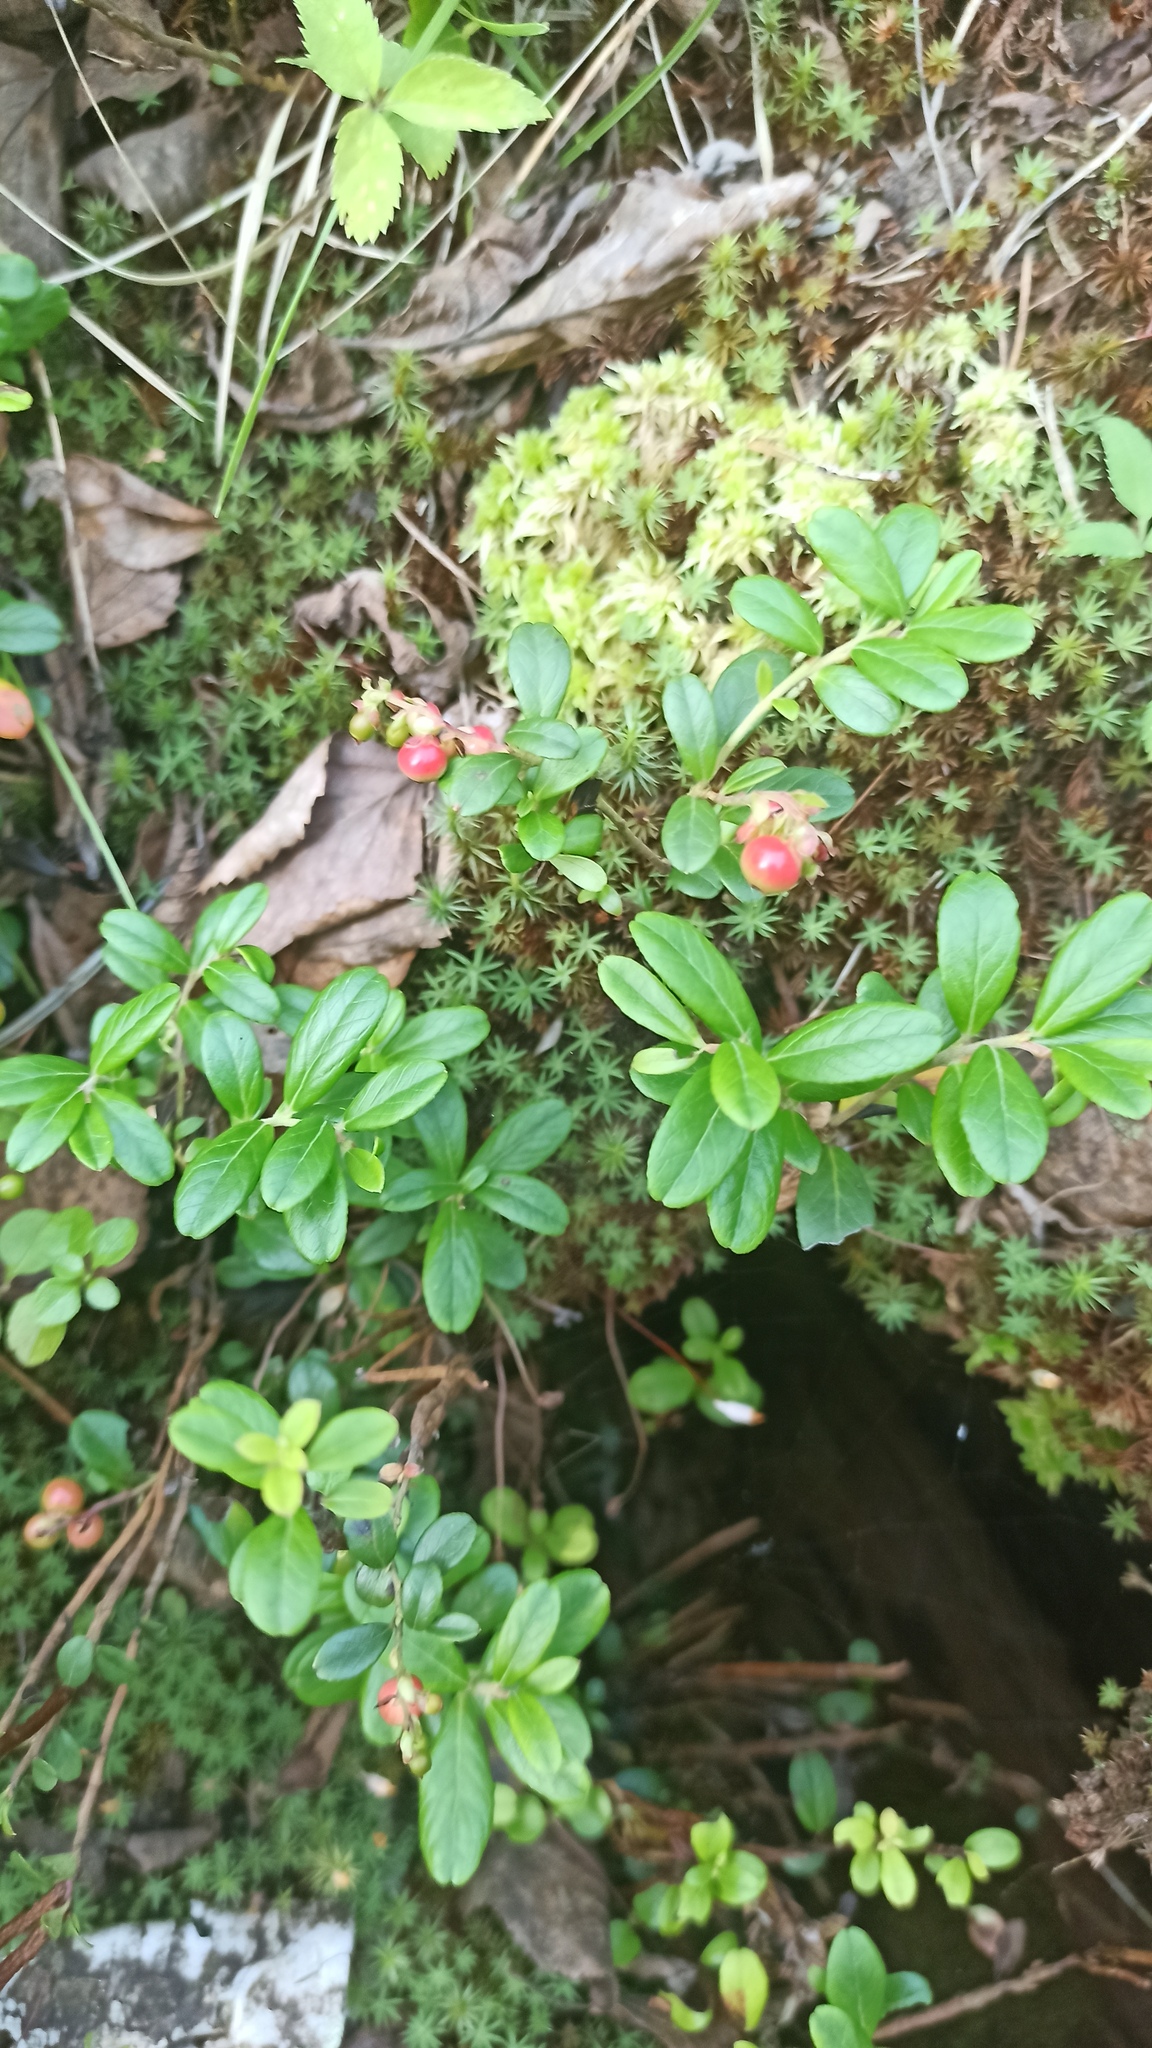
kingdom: Plantae
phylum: Tracheophyta
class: Magnoliopsida
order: Ericales
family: Ericaceae
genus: Vaccinium
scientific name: Vaccinium vitis-idaea
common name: Cowberry
